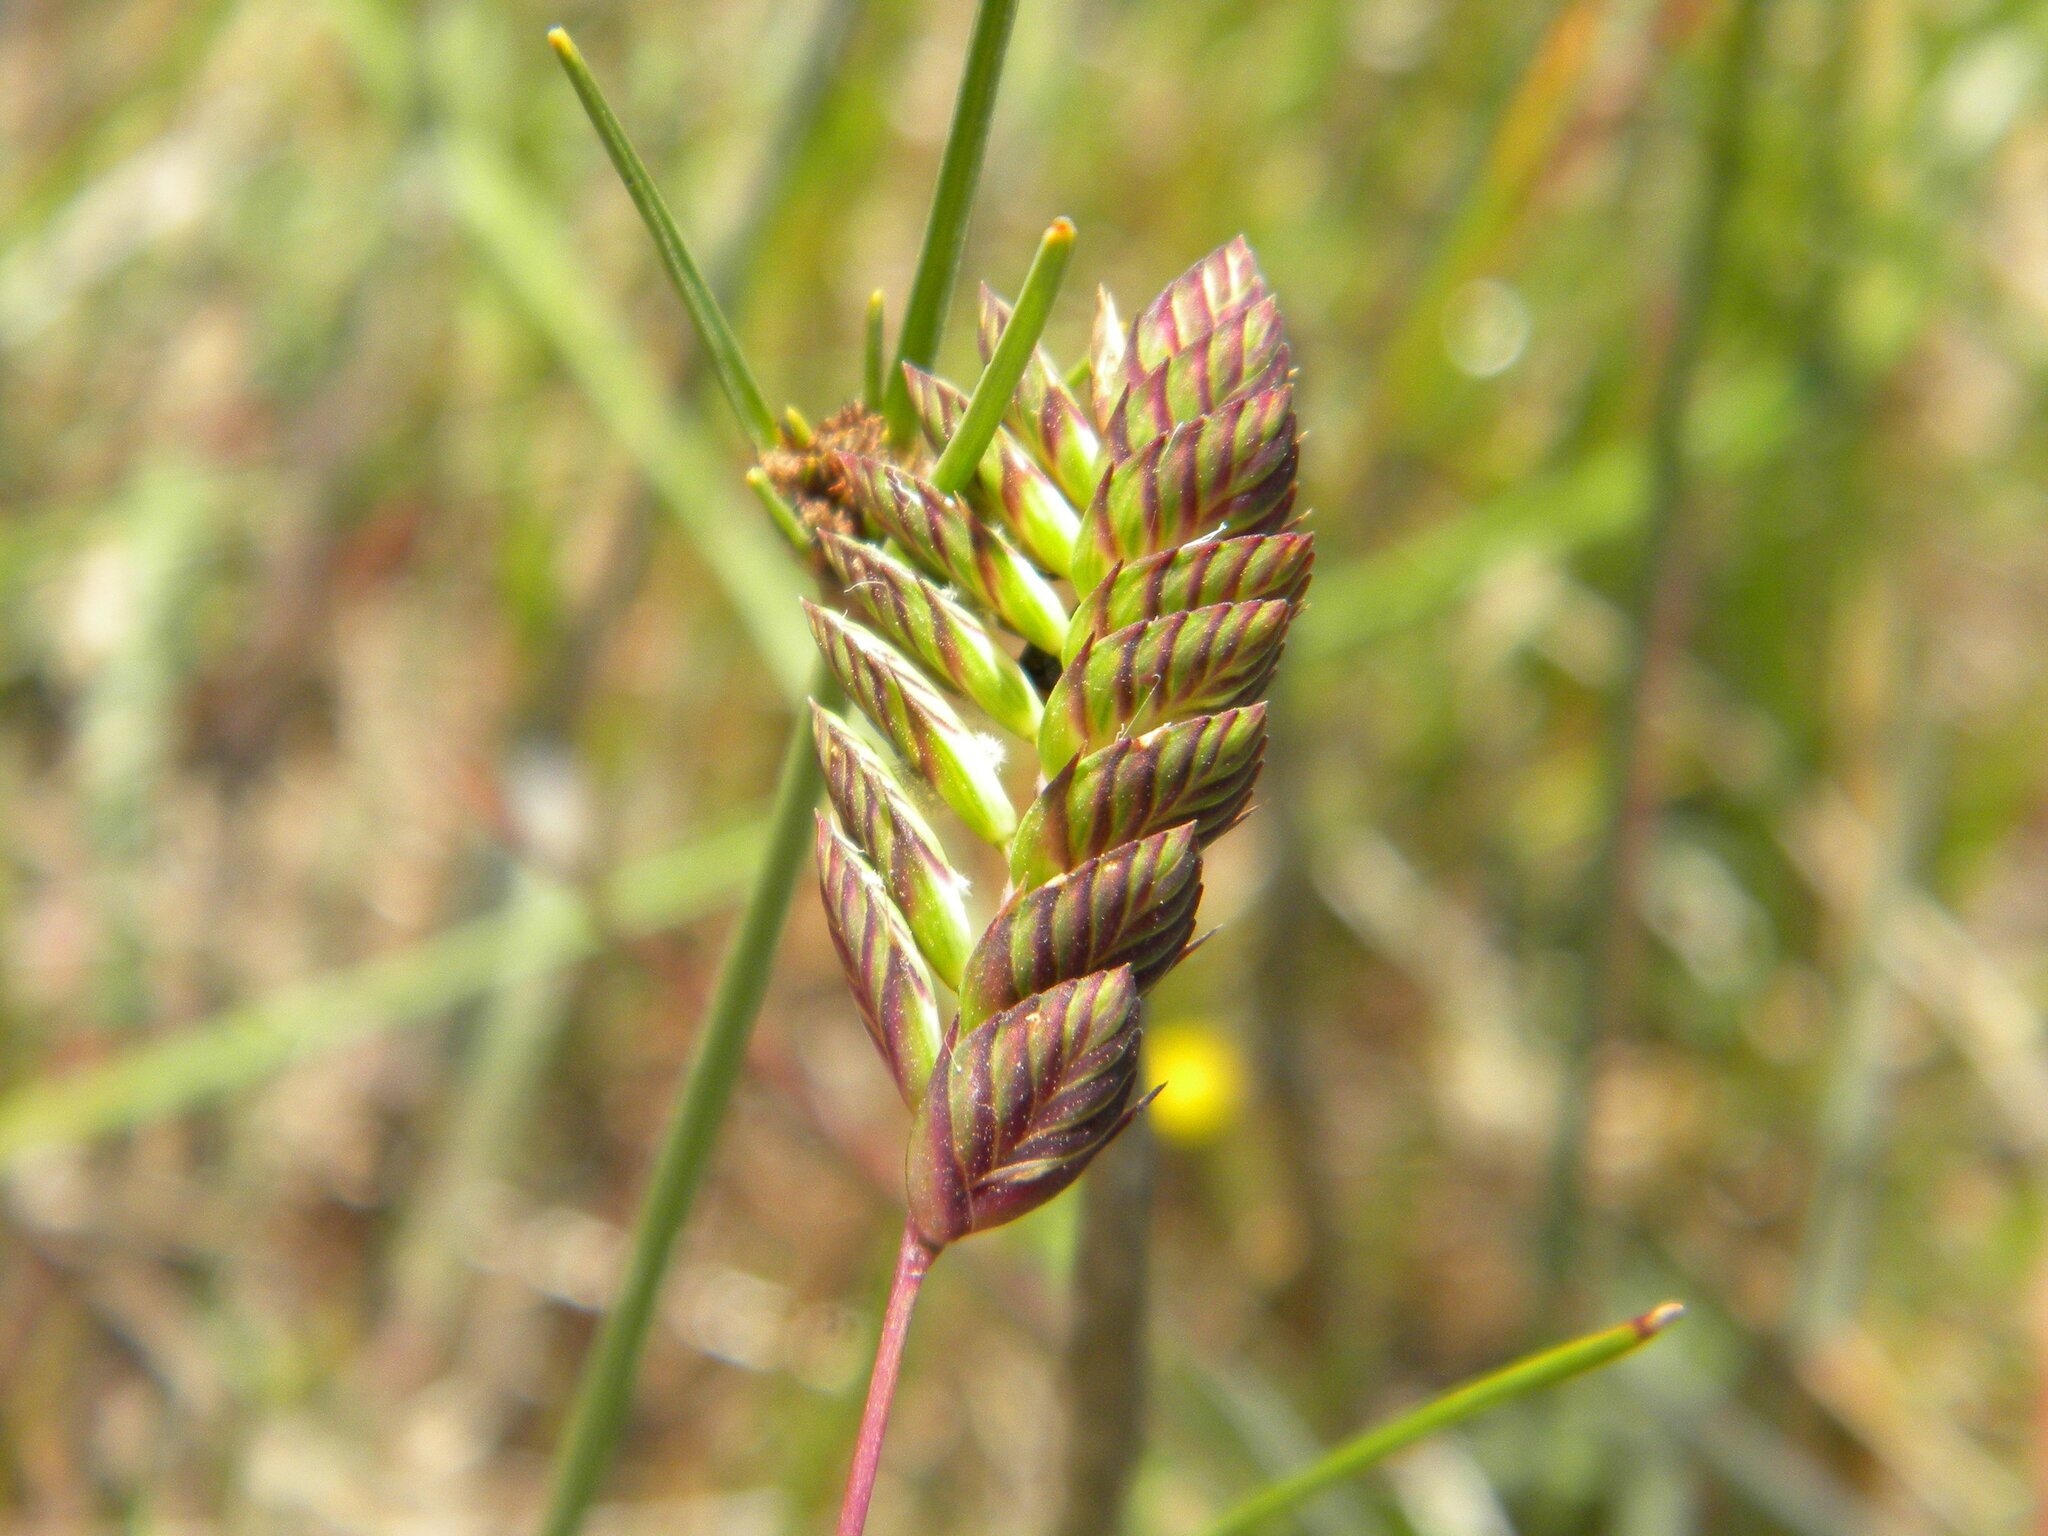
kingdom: Plantae
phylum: Tracheophyta
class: Liliopsida
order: Poales
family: Poaceae
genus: Tribolium
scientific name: Tribolium uniolae
